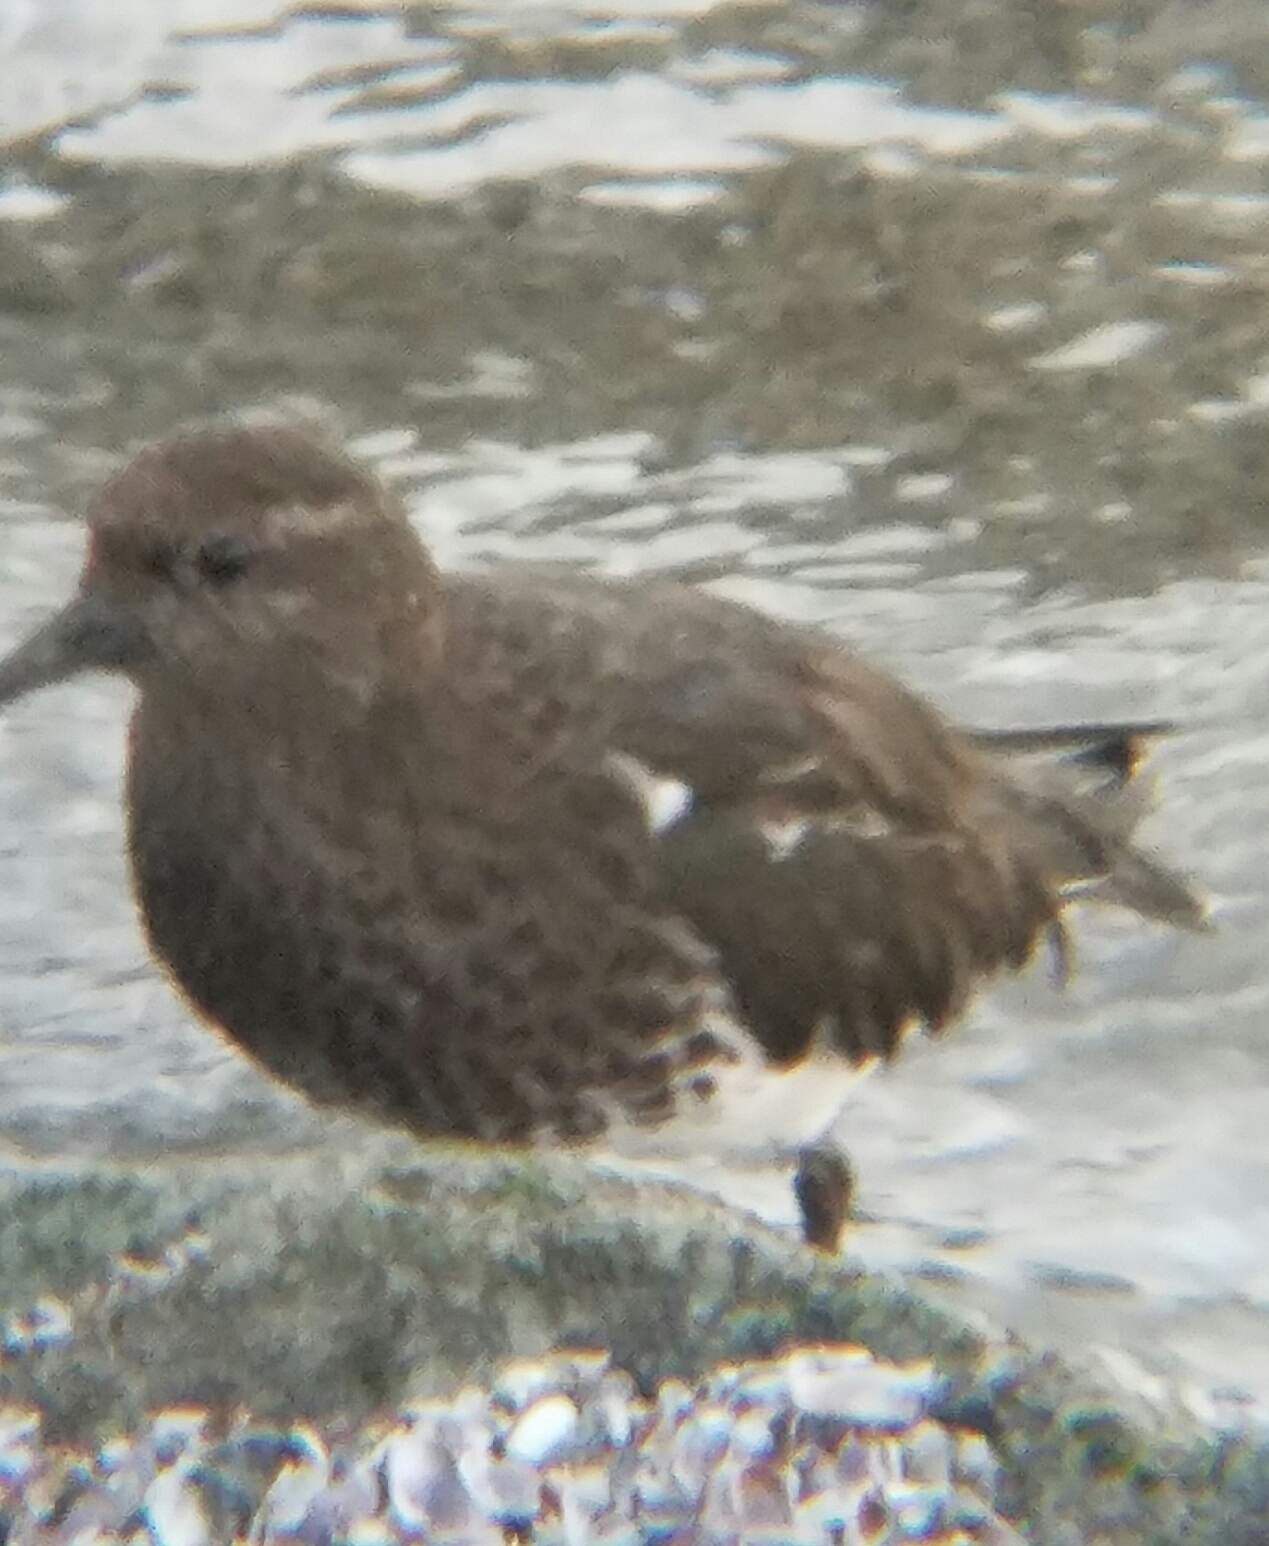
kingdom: Animalia
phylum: Chordata
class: Aves
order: Charadriiformes
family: Scolopacidae
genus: Arenaria
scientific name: Arenaria melanocephala
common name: Black turnstone
